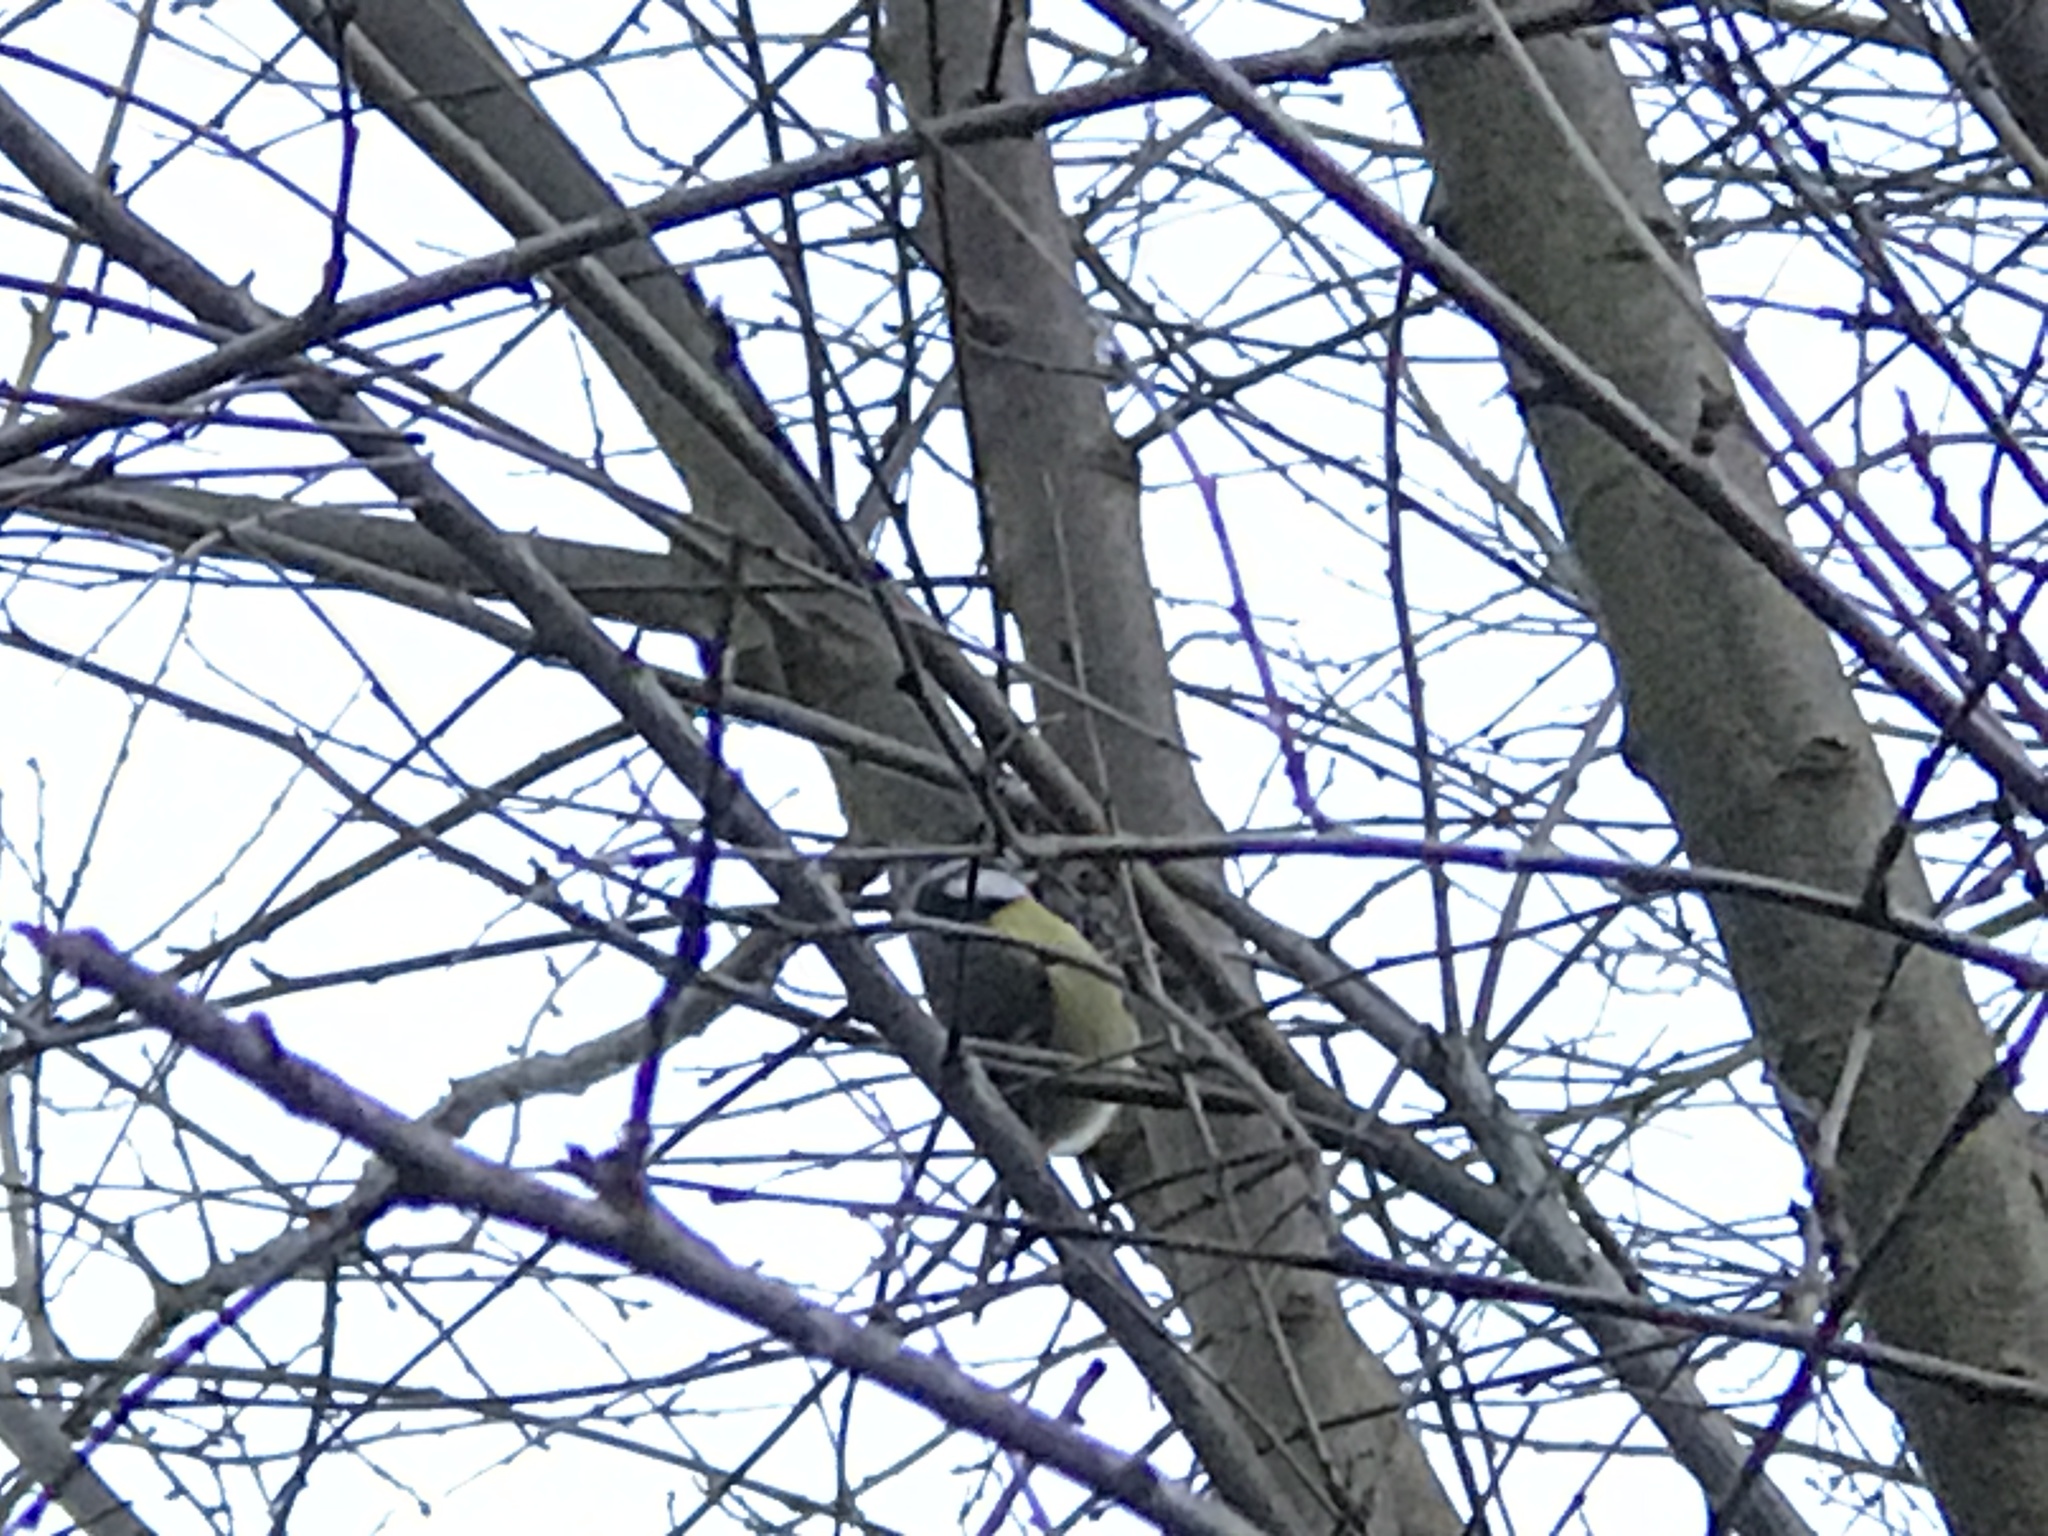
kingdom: Animalia
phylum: Chordata
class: Aves
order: Passeriformes
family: Paridae
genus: Cyanistes
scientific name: Cyanistes caeruleus
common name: Eurasian blue tit
